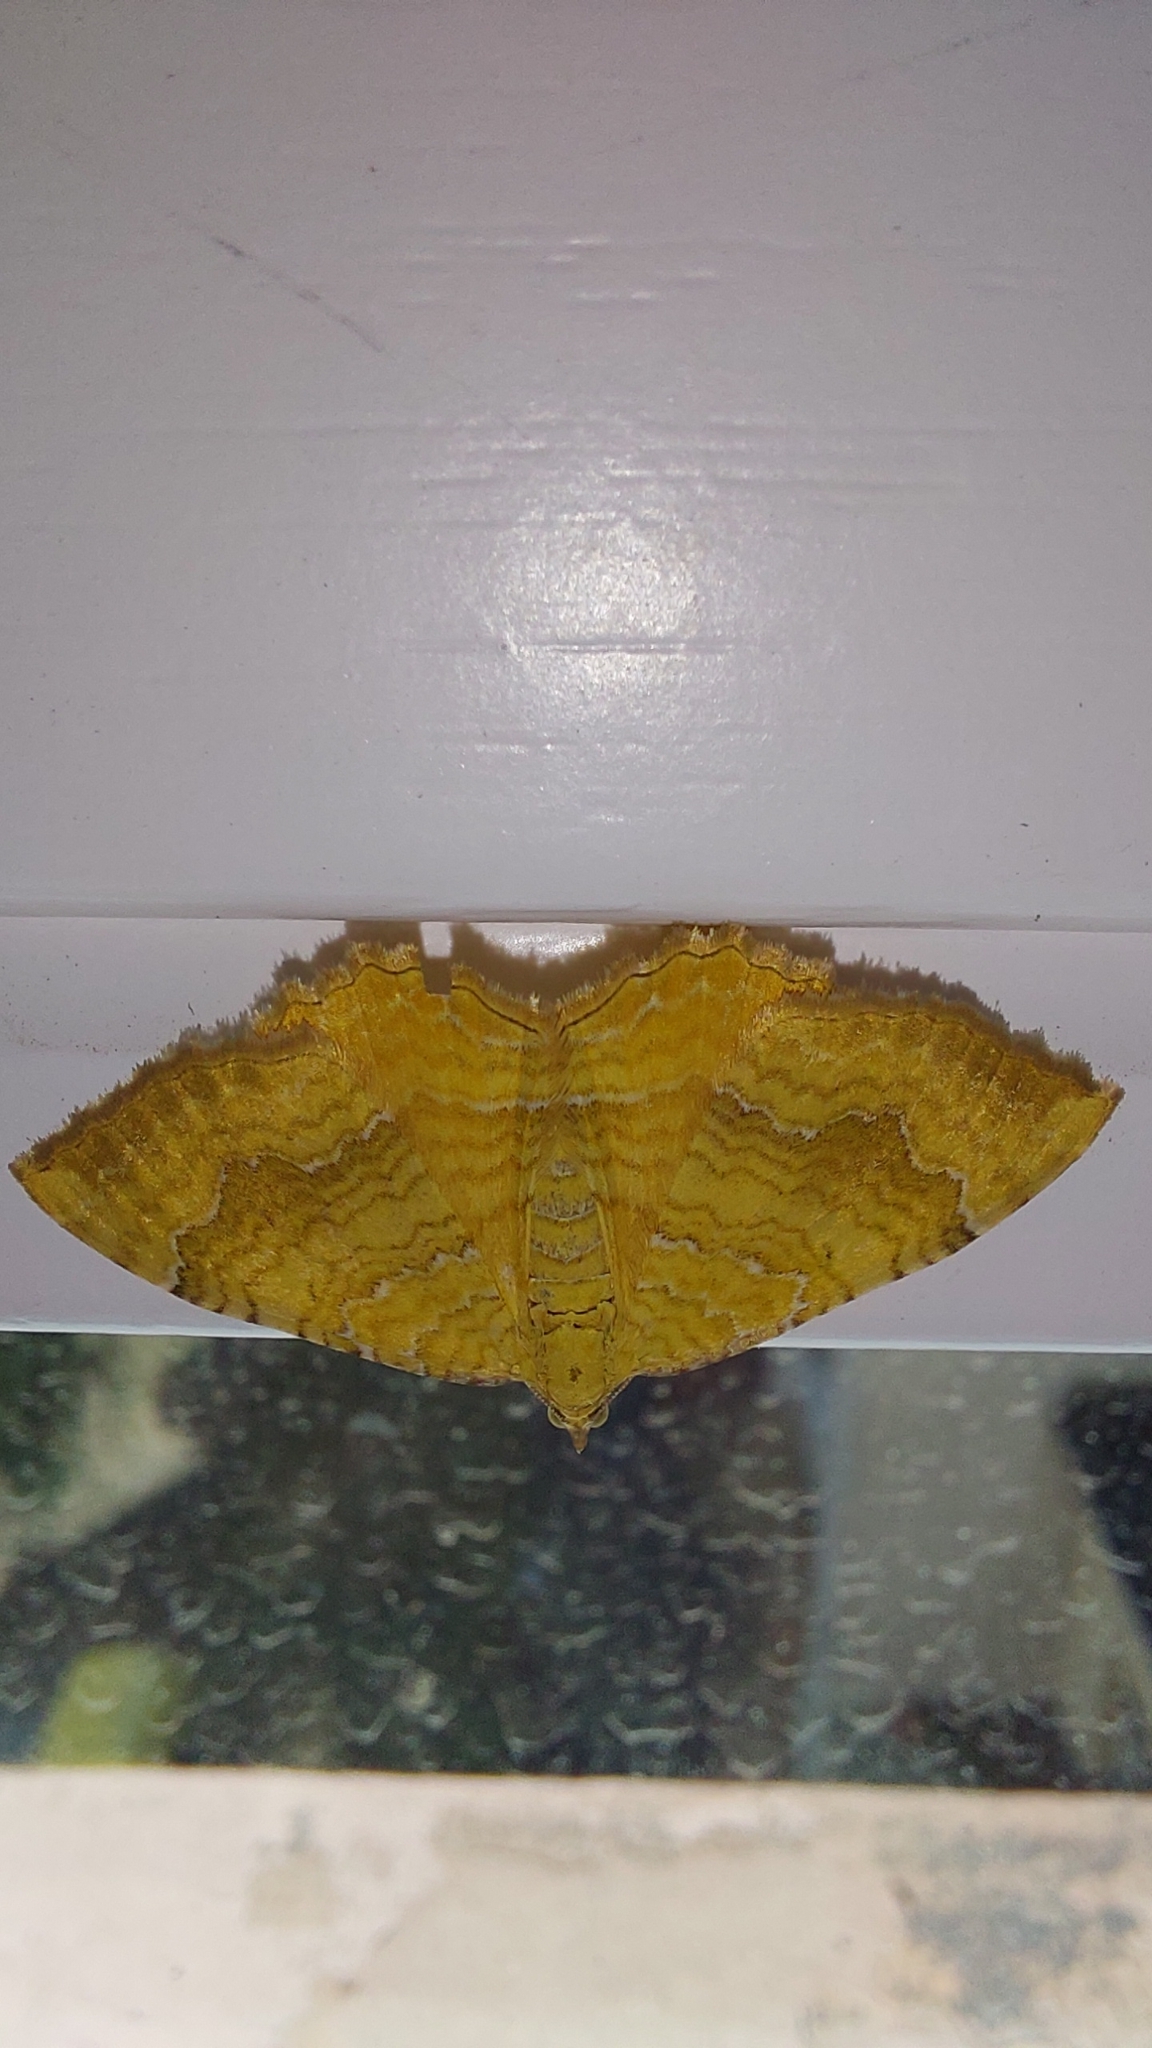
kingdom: Animalia
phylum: Arthropoda
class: Insecta
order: Lepidoptera
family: Geometridae
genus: Camptogramma
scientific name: Camptogramma bilineata
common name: Yellow shell
